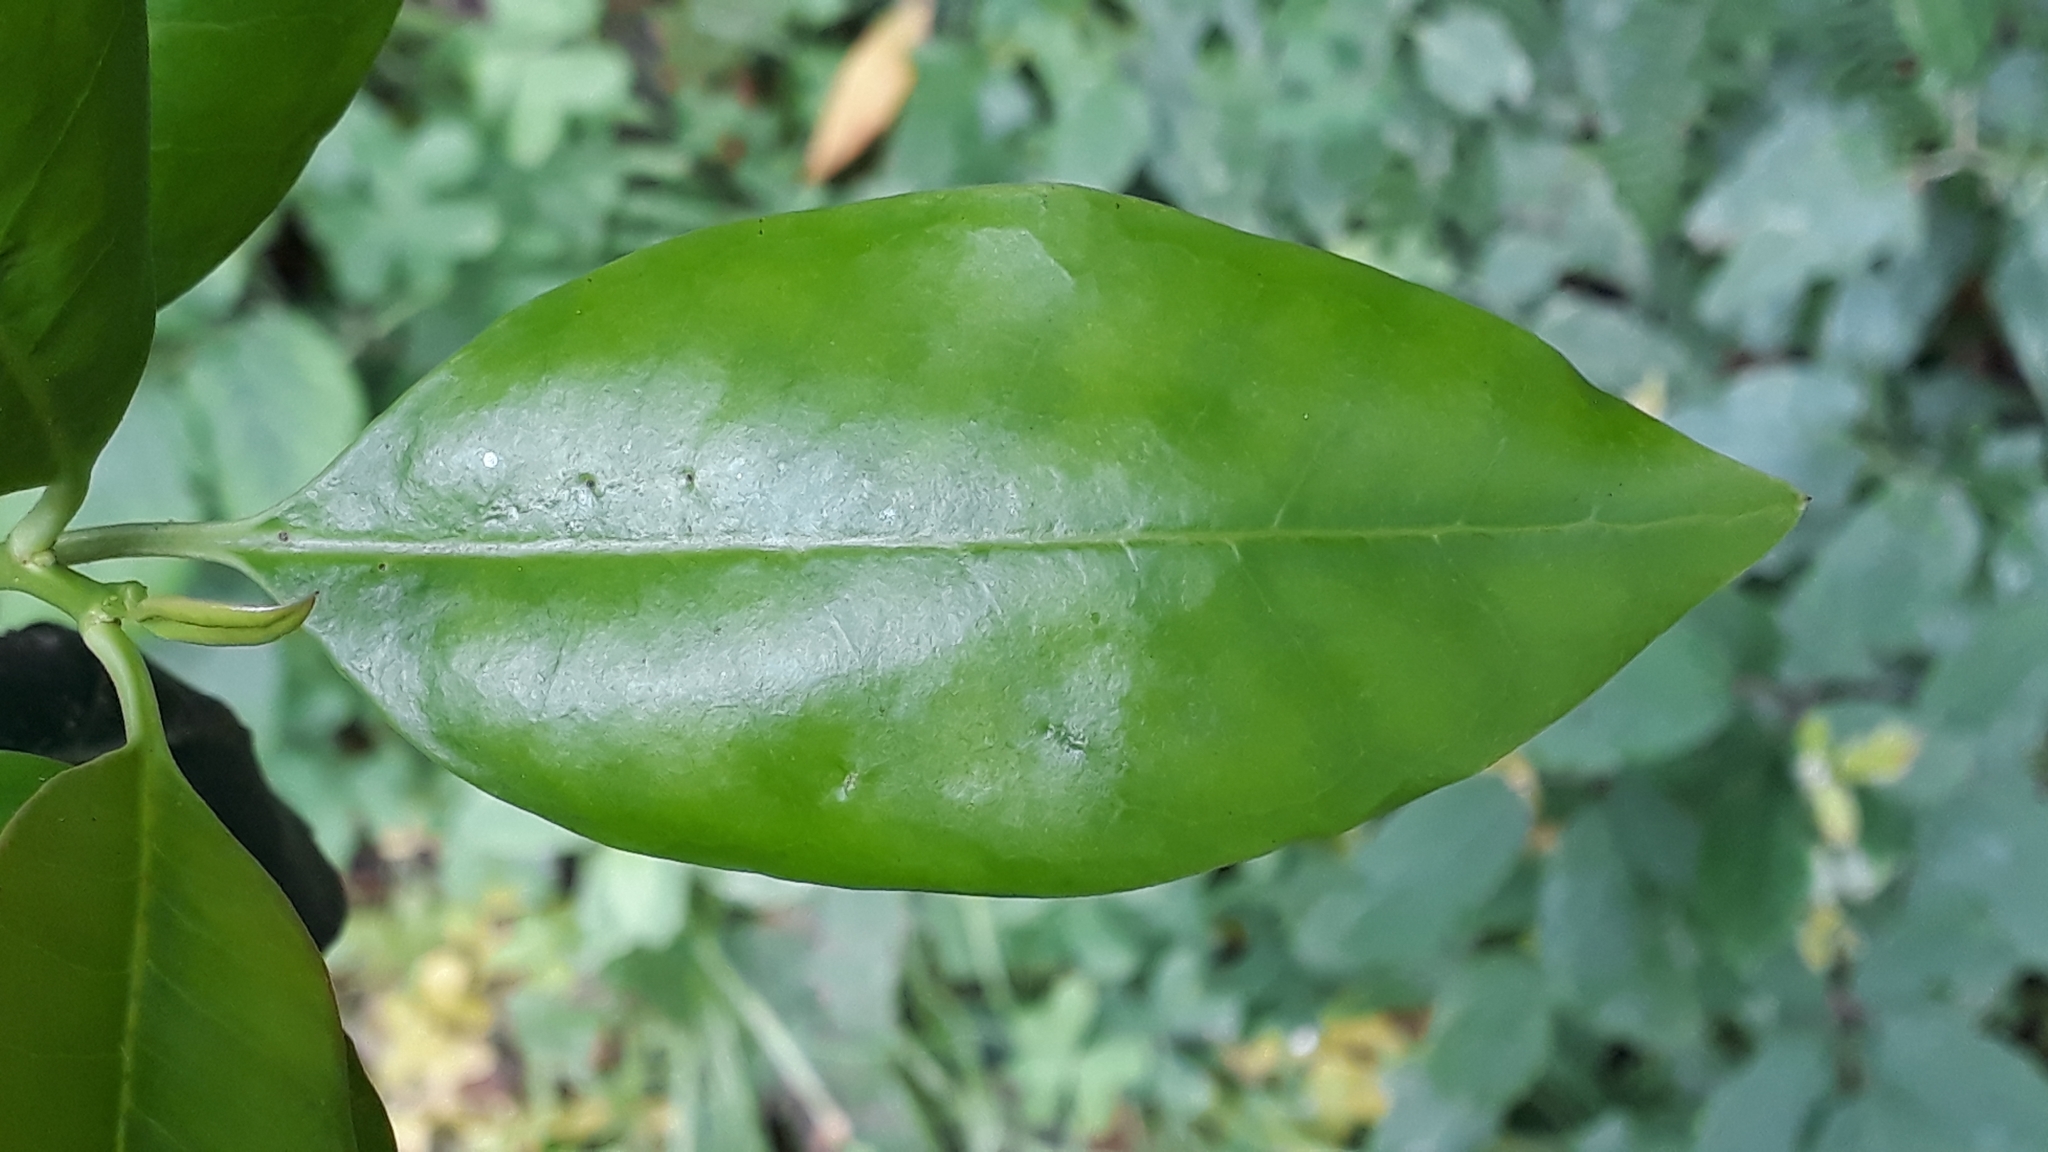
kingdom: Plantae
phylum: Tracheophyta
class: Magnoliopsida
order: Aquifoliales
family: Aquifoliaceae
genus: Ilex
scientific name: Ilex canariensis
